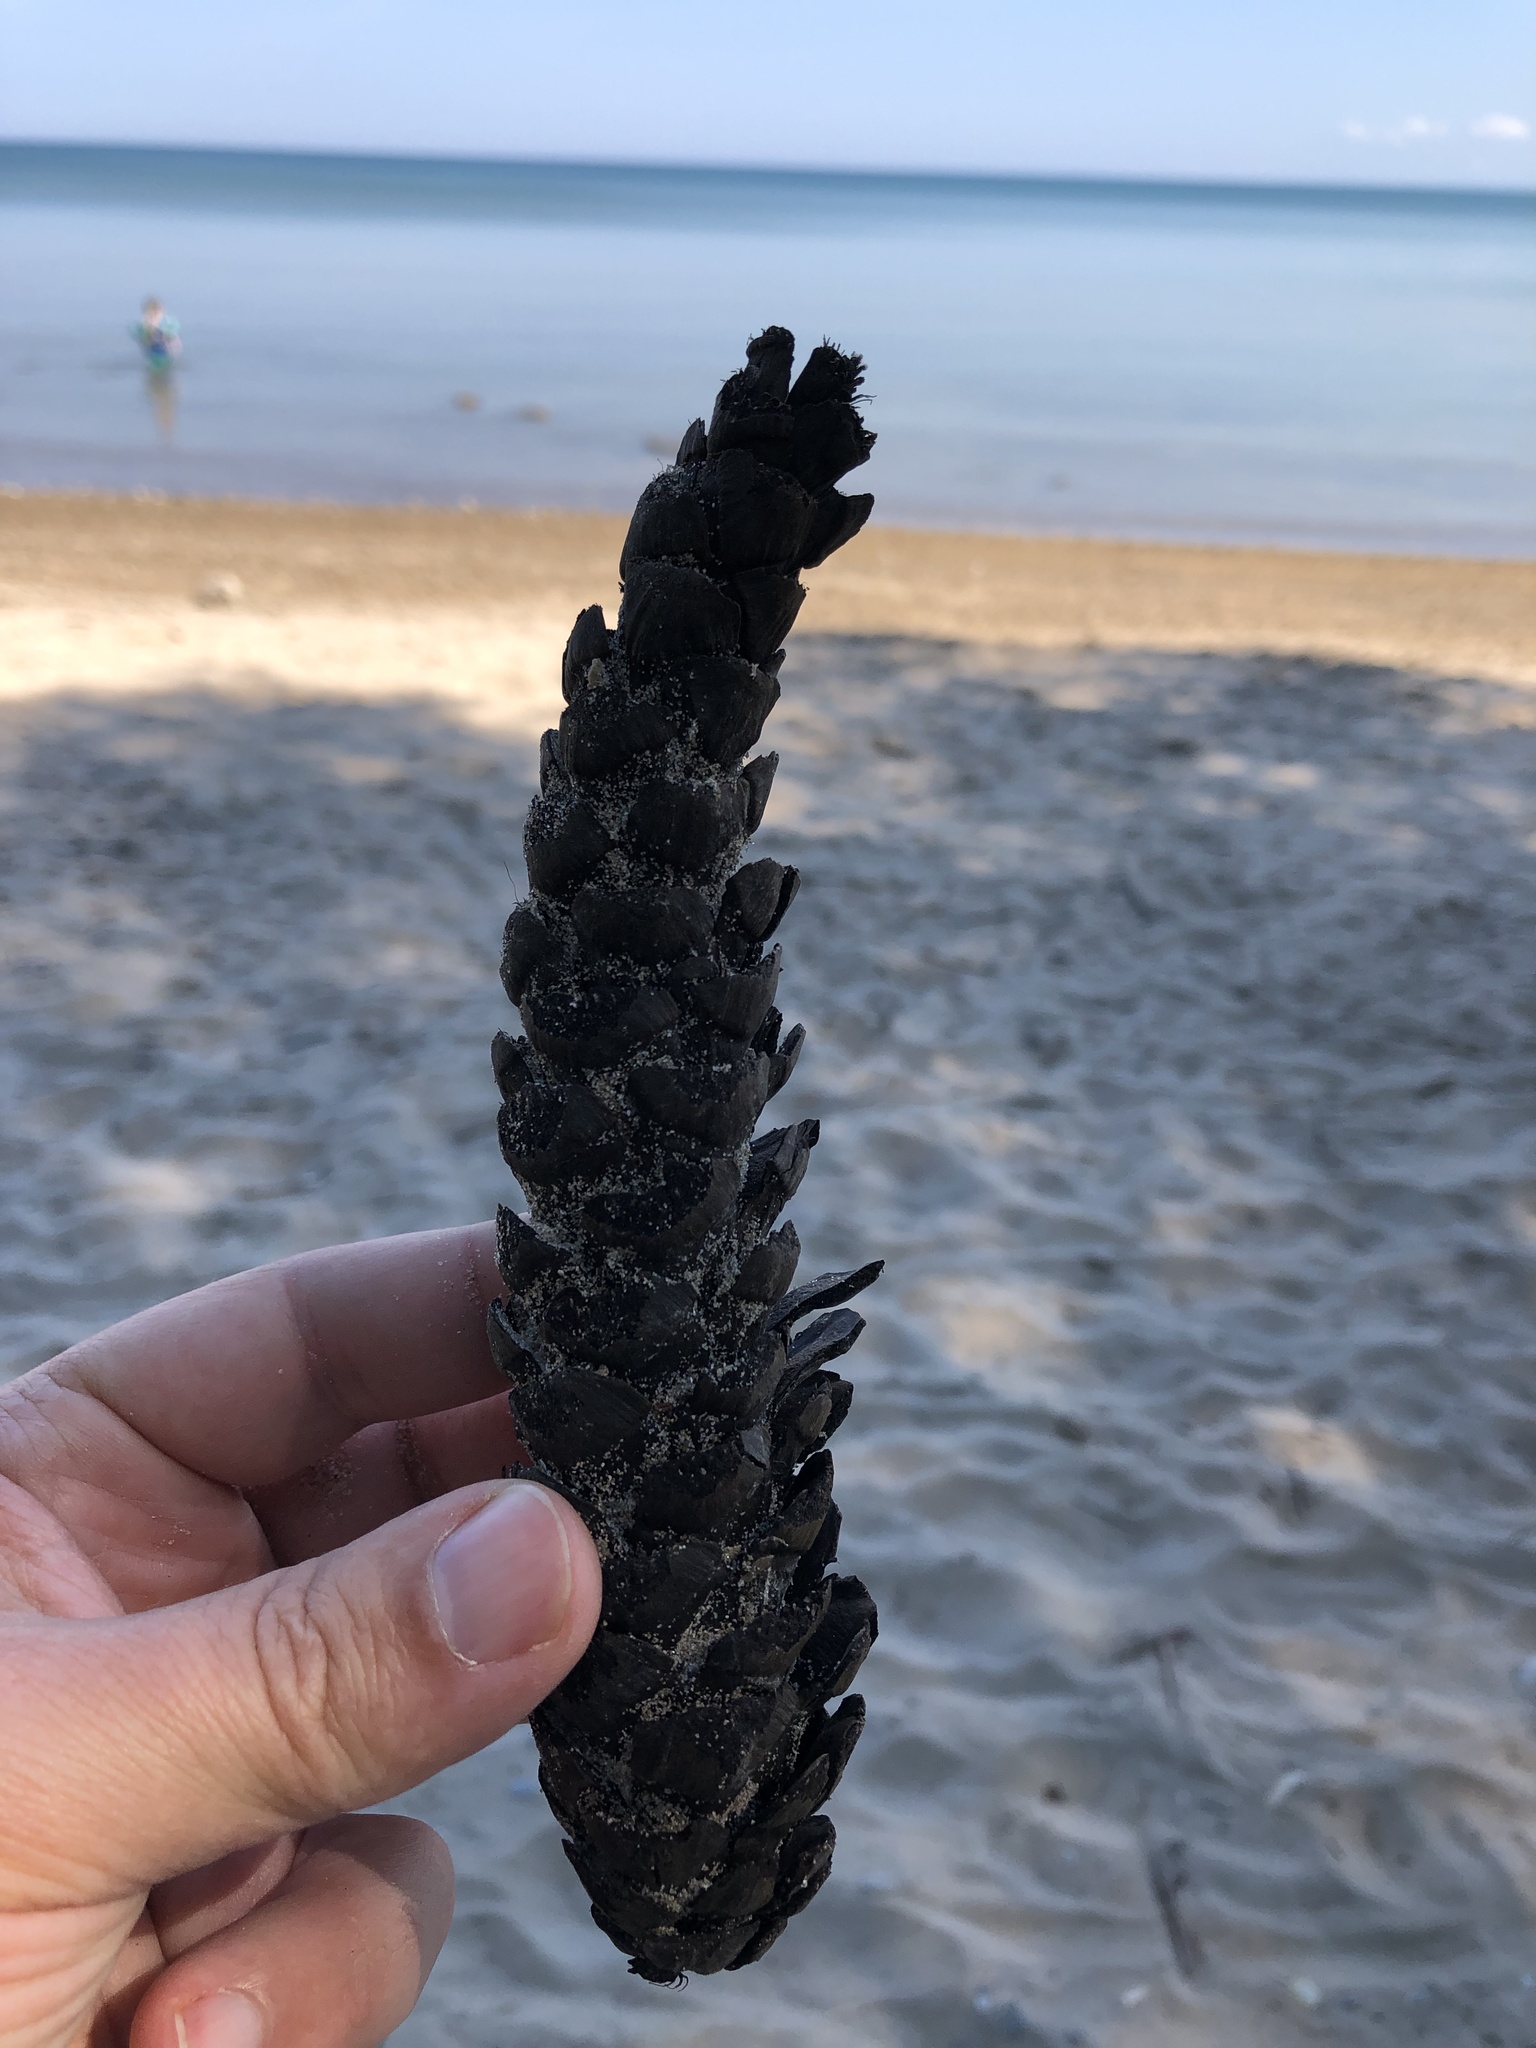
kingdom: Plantae
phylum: Tracheophyta
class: Pinopsida
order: Pinales
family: Pinaceae
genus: Pinus
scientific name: Pinus strobus
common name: Weymouth pine
